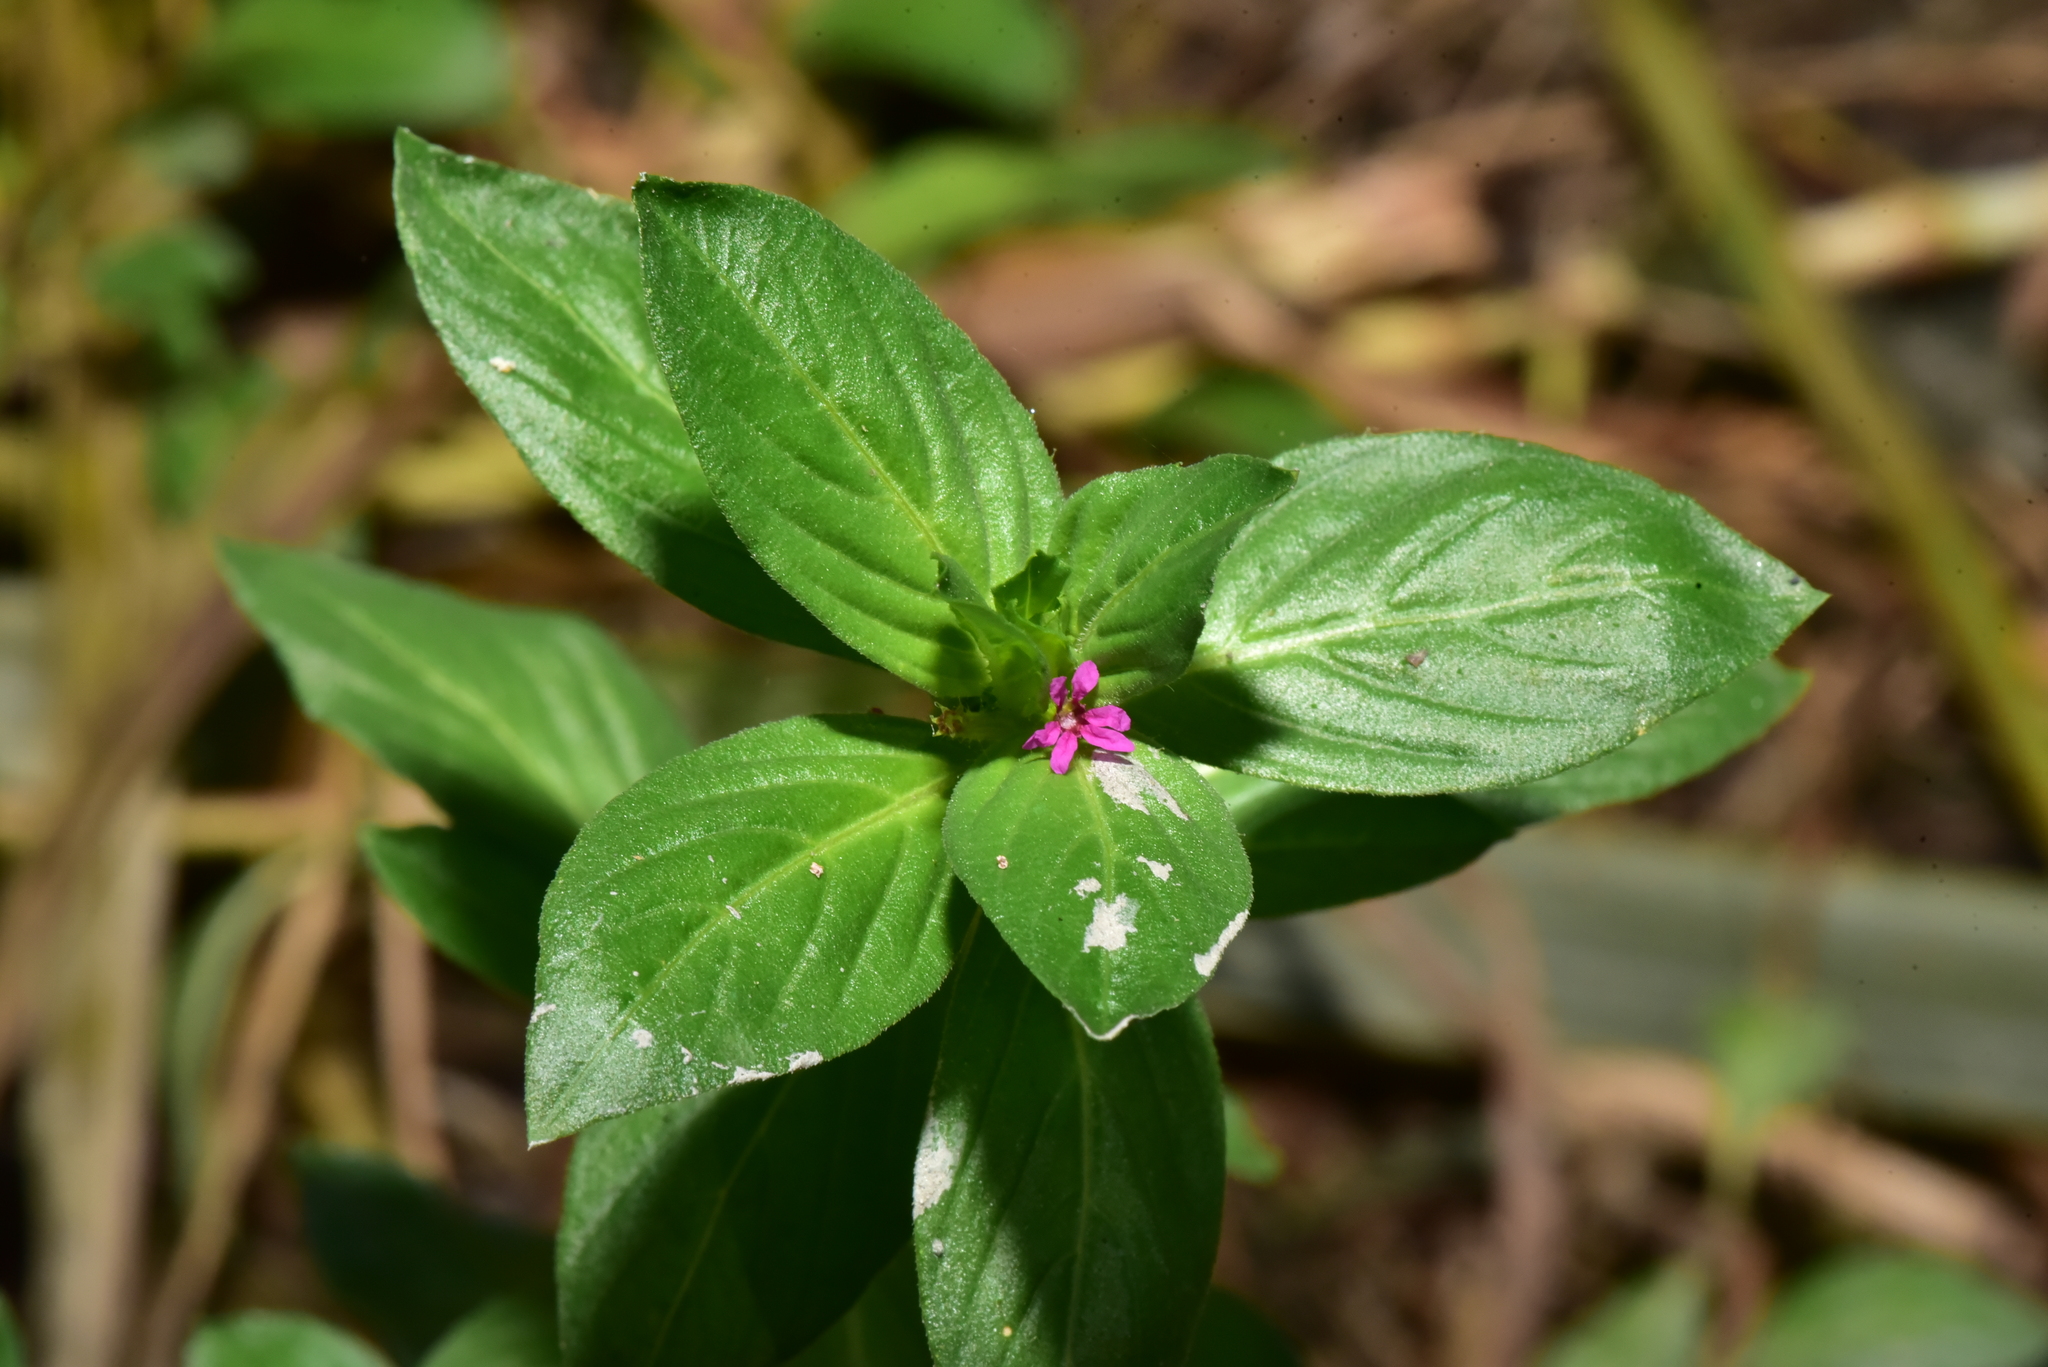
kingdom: Plantae
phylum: Tracheophyta
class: Magnoliopsida
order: Myrtales
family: Lythraceae
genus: Cuphea
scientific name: Cuphea carthagenensis
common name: Colombian waxweed
